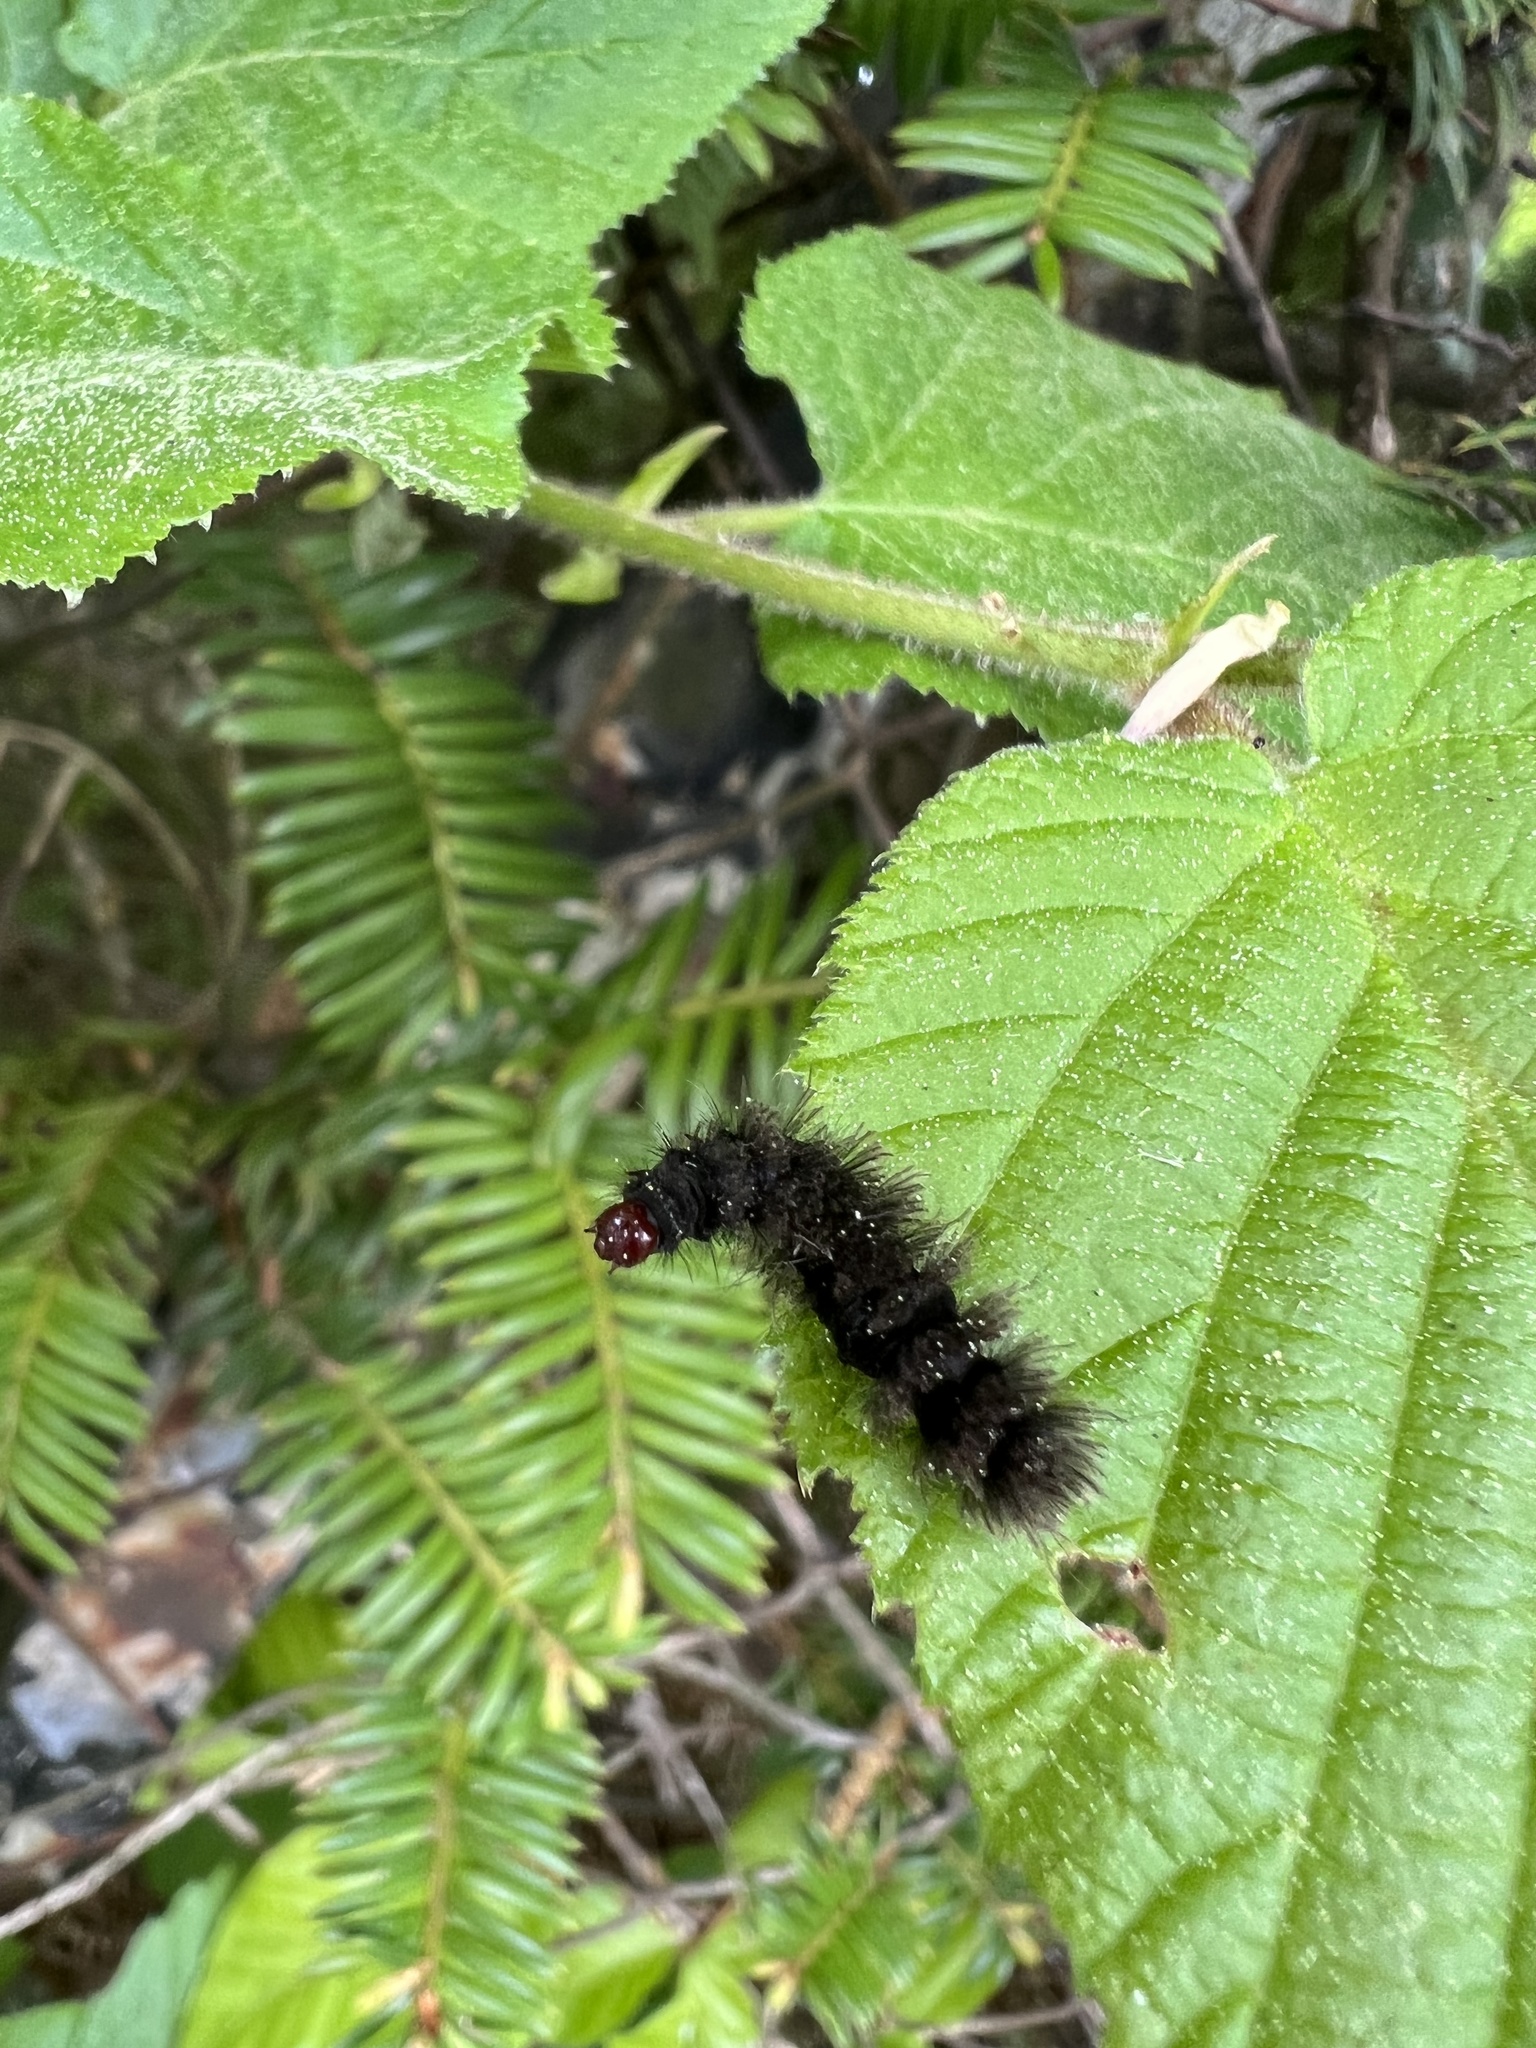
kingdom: Animalia
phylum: Arthropoda
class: Insecta
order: Lepidoptera
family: Erebidae
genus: Amata
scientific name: Amata phegea
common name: Nine-spotted
